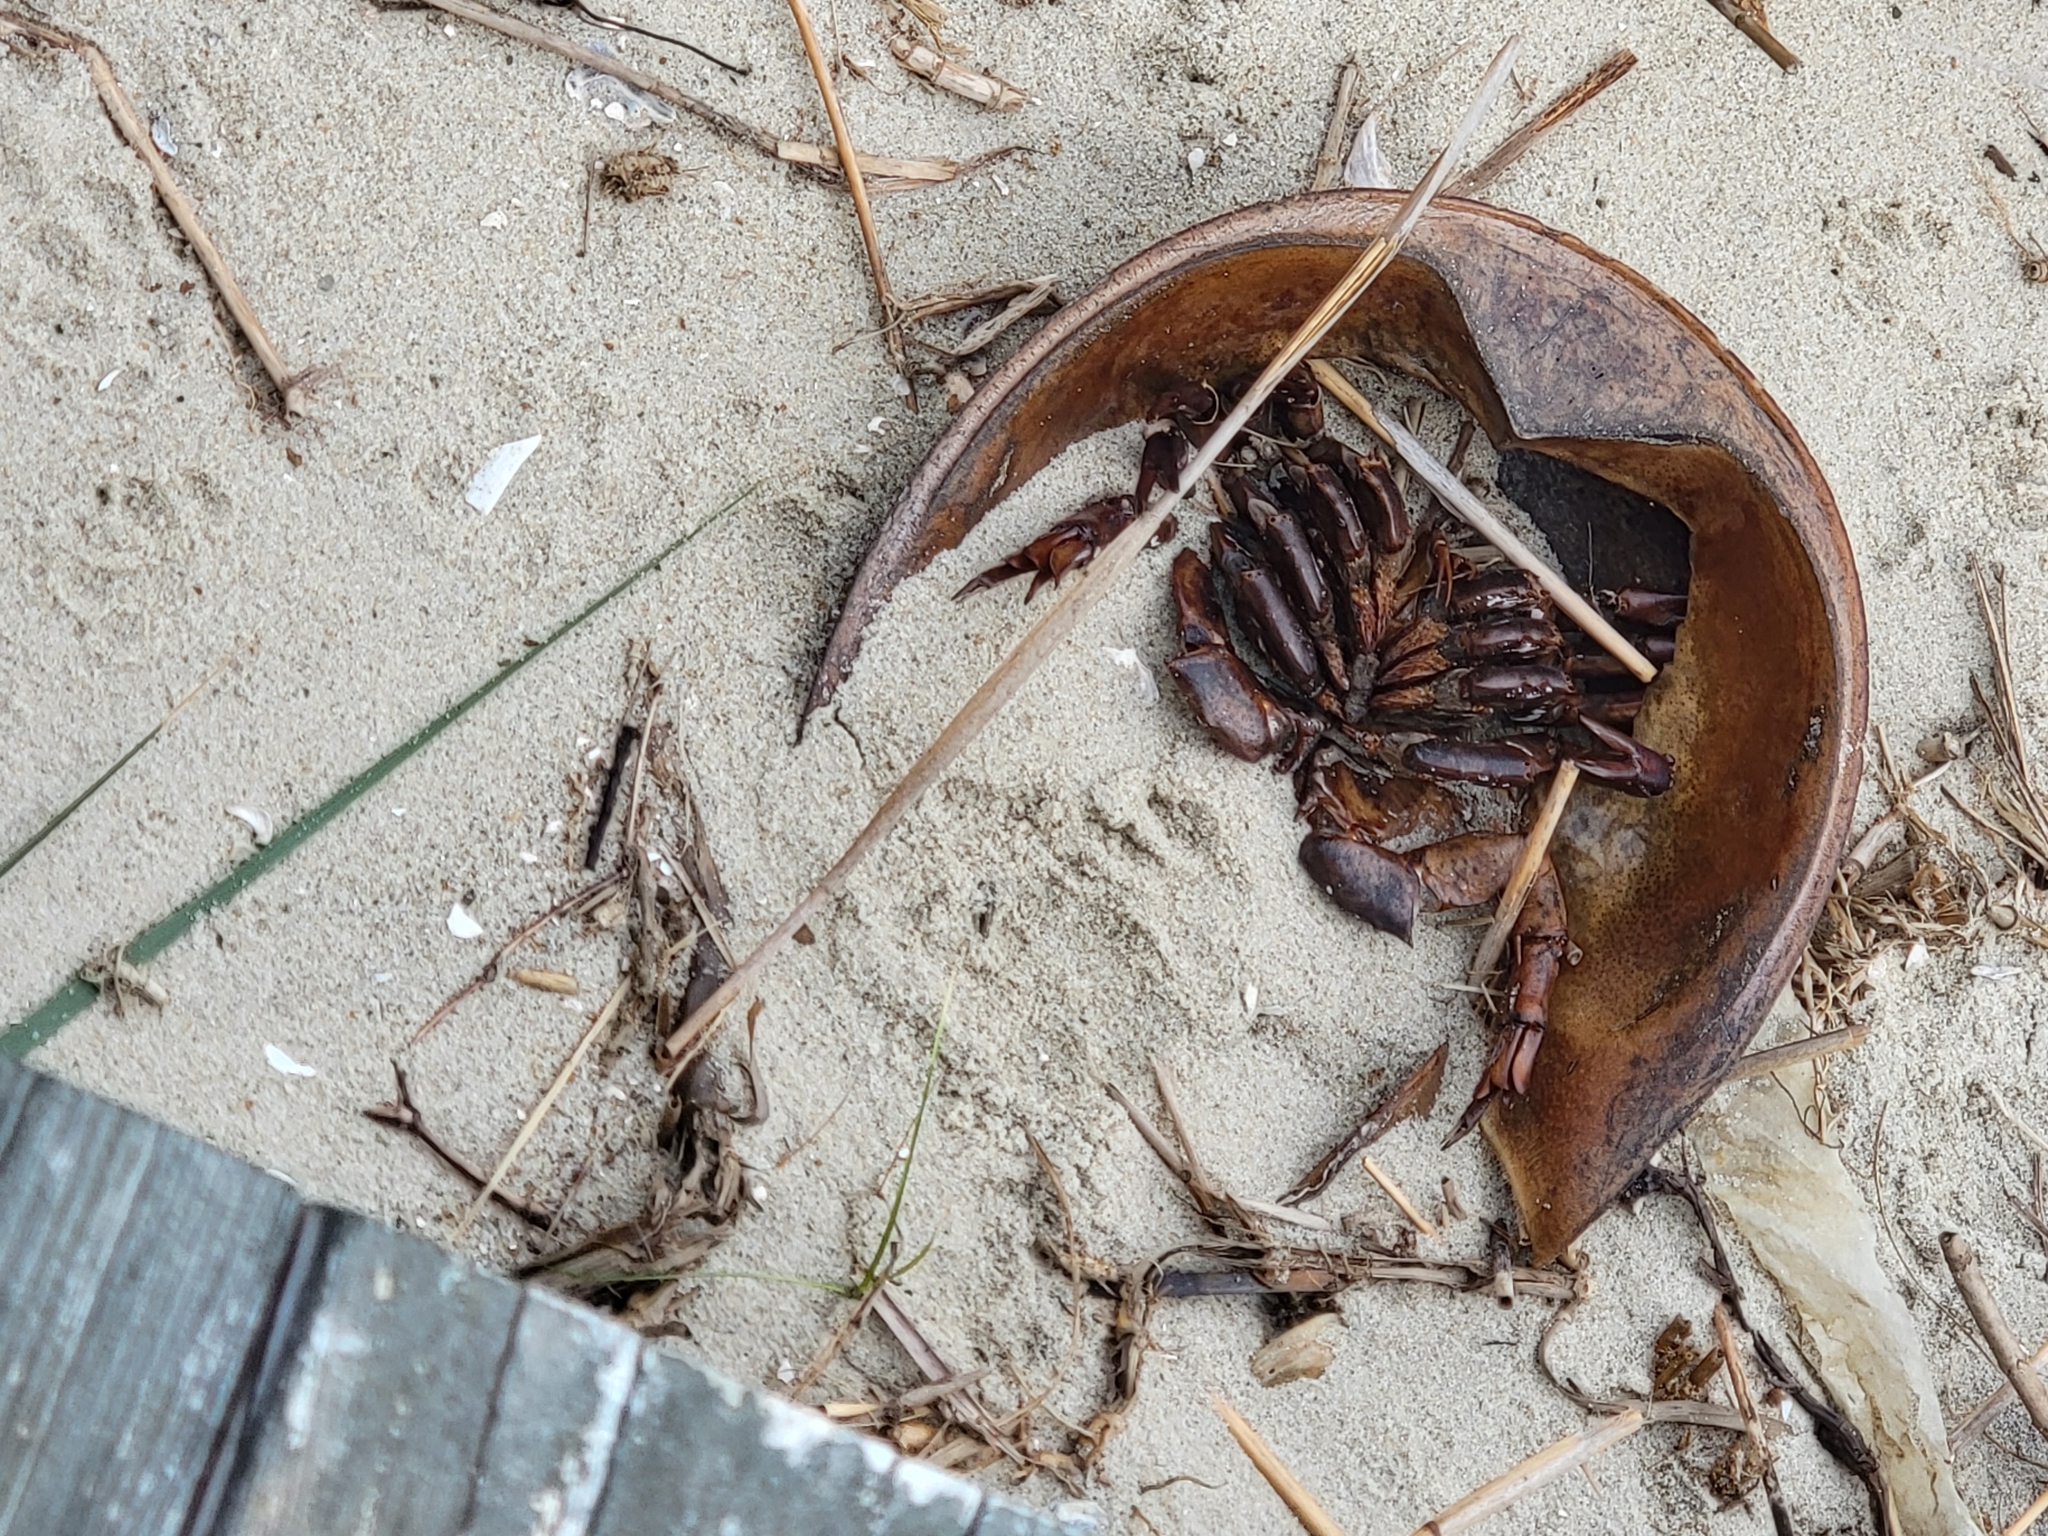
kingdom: Animalia
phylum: Arthropoda
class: Merostomata
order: Xiphosurida
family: Limulidae
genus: Limulus
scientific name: Limulus polyphemus
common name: Horseshoe crab
